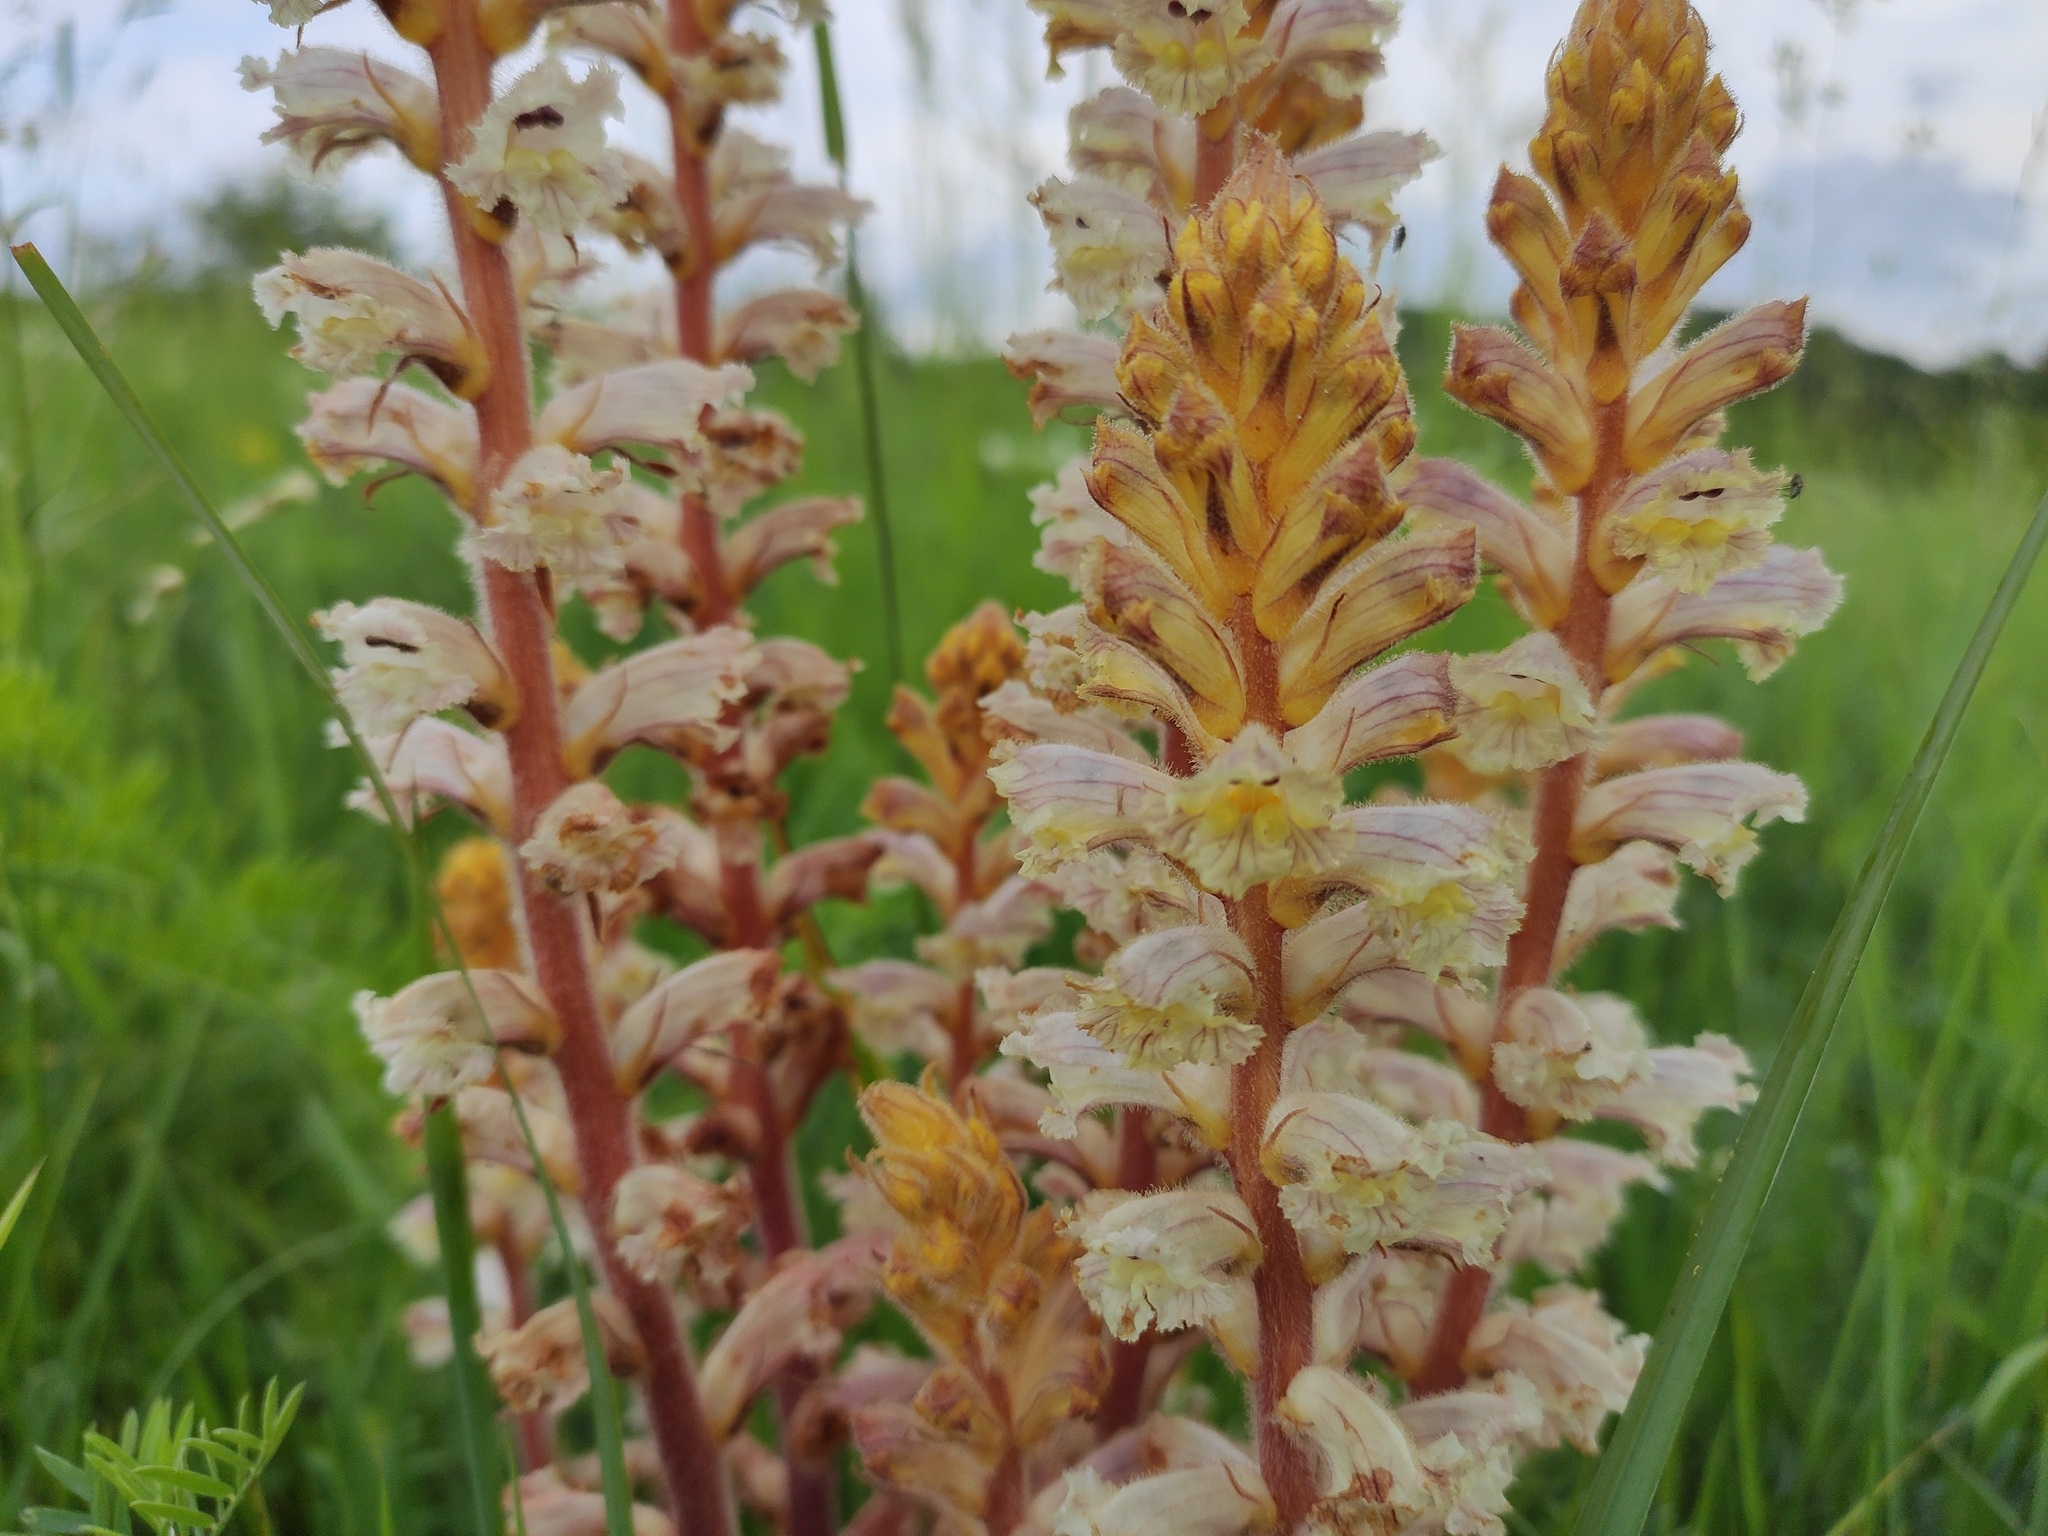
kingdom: Plantae
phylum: Tracheophyta
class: Magnoliopsida
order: Lamiales
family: Orobanchaceae
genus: Orobanche
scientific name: Orobanche owerinii
